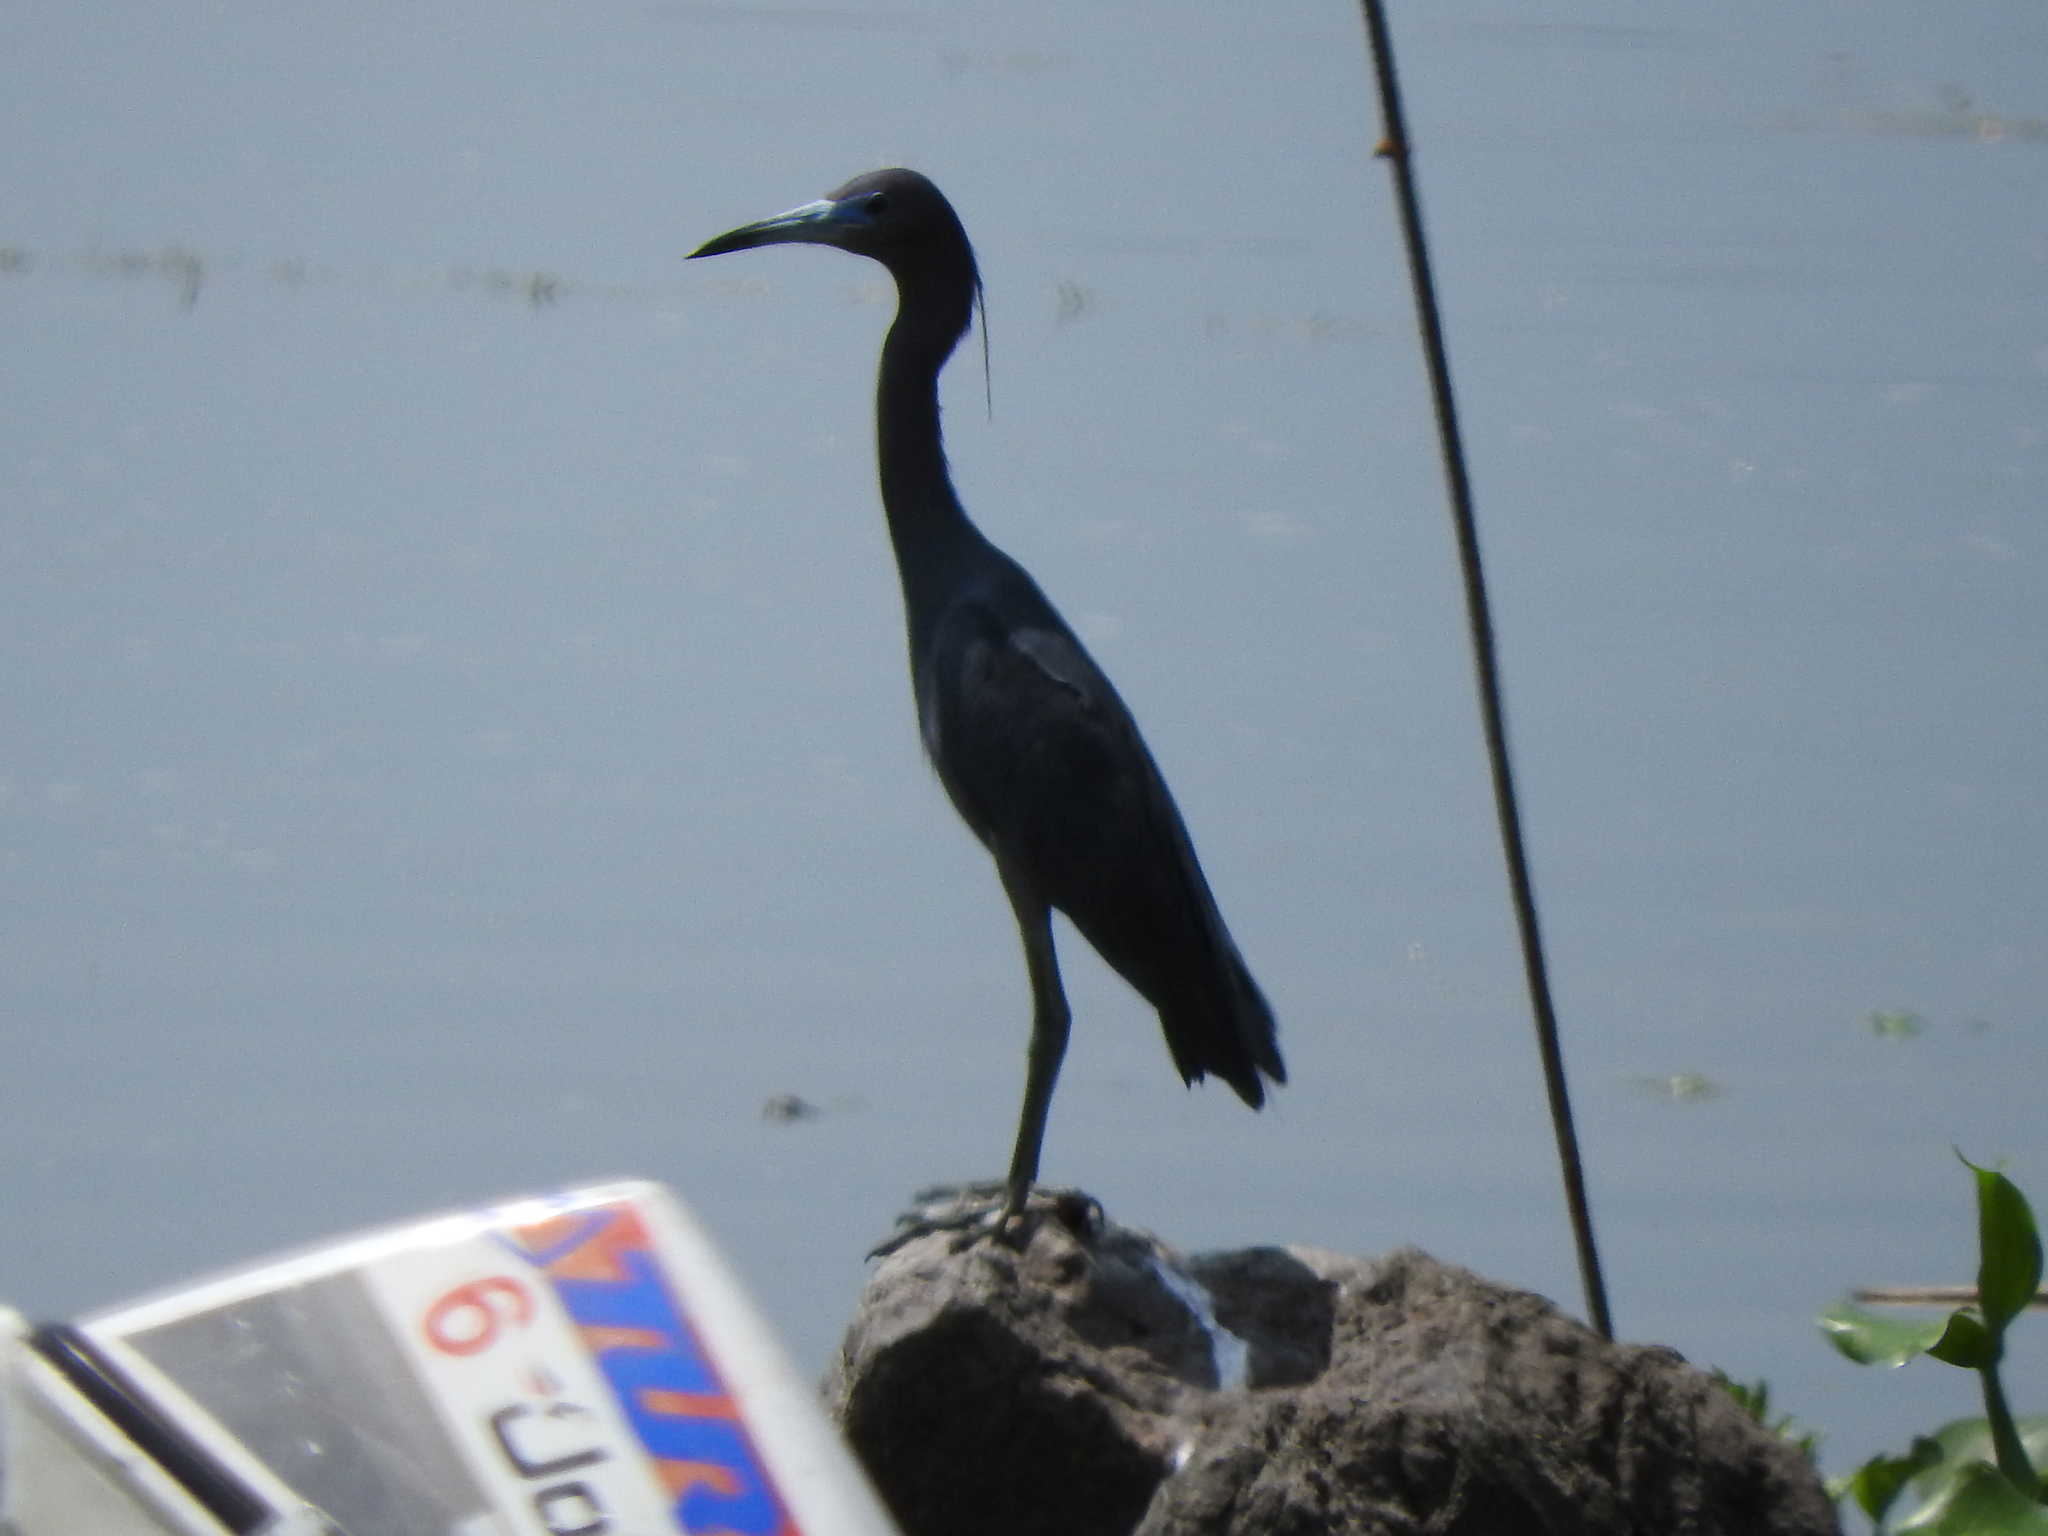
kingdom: Animalia
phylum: Chordata
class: Aves
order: Pelecaniformes
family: Ardeidae
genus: Egretta
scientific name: Egretta caerulea
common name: Little blue heron
